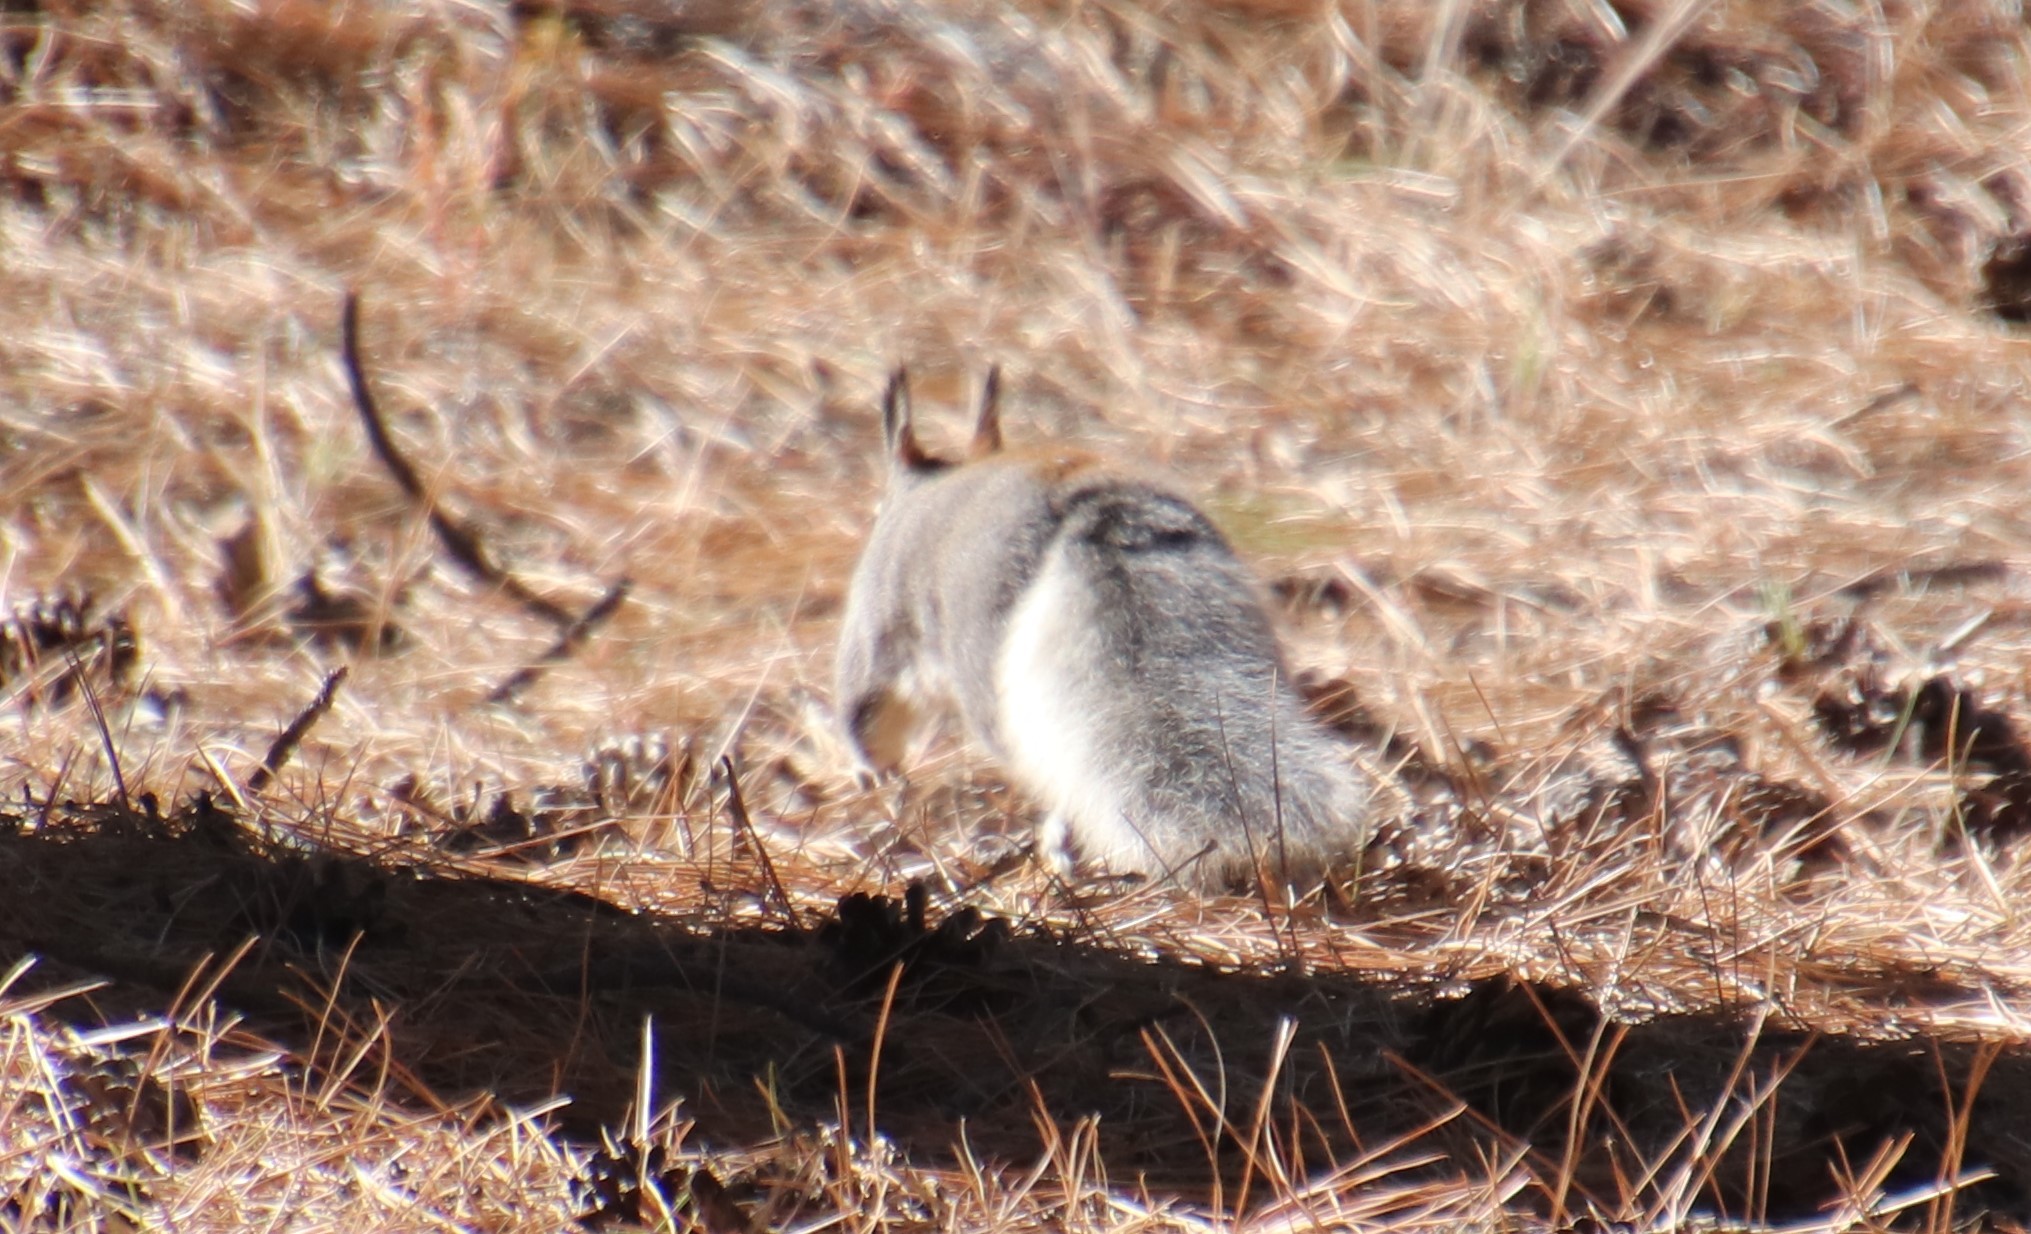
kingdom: Animalia
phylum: Chordata
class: Mammalia
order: Rodentia
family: Sciuridae
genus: Sciurus
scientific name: Sciurus aberti
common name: Abert's squirrel
